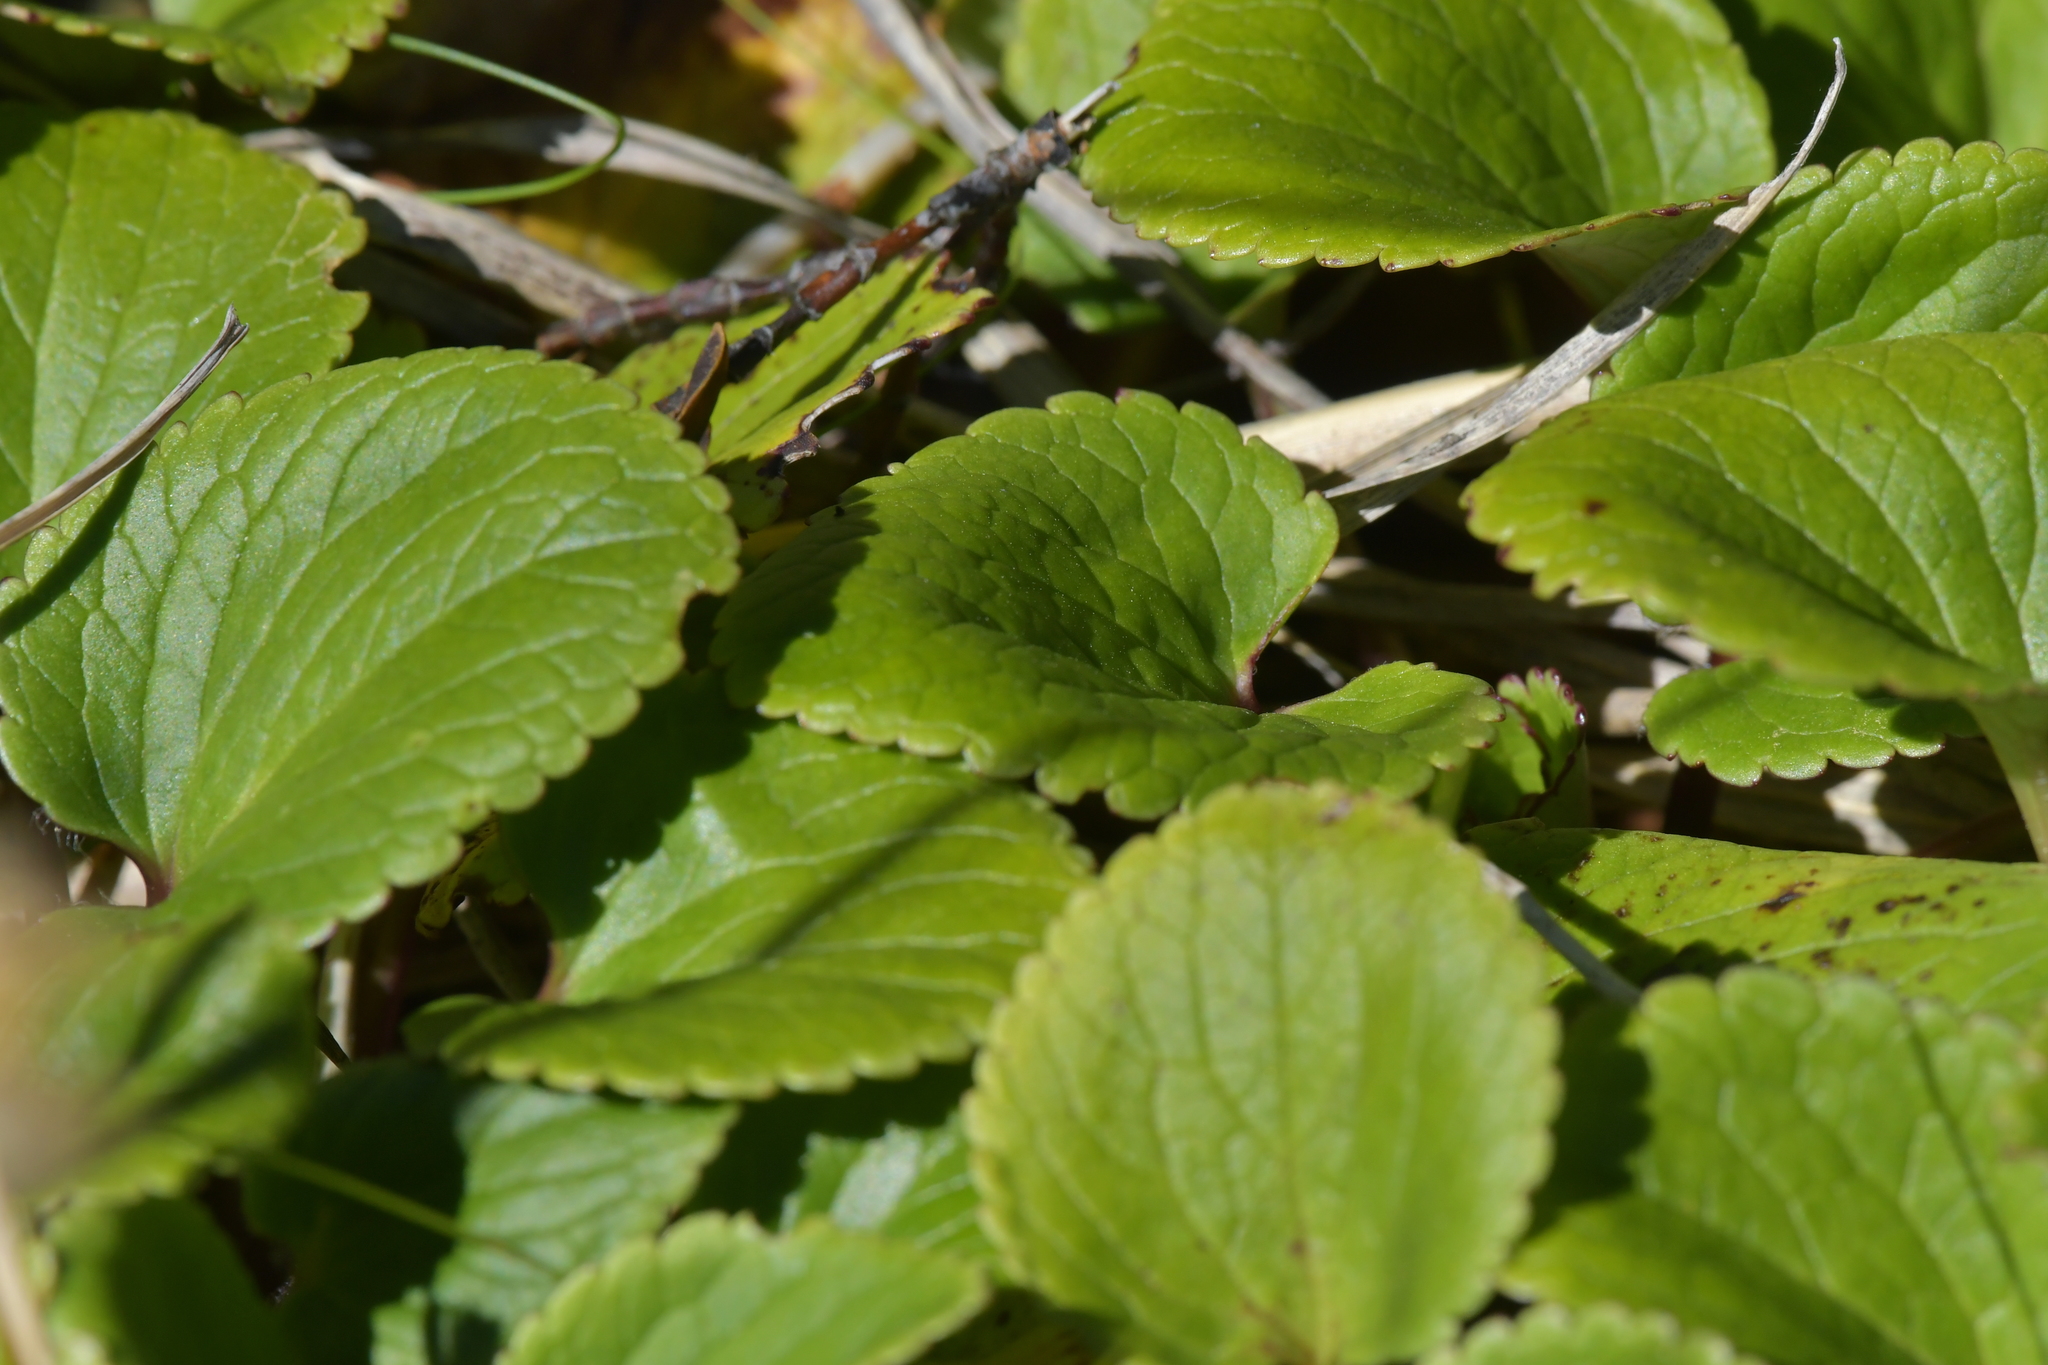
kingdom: Plantae
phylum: Tracheophyta
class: Magnoliopsida
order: Lamiales
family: Plantaginaceae
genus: Ourisia
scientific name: Ourisia macrocarpa
